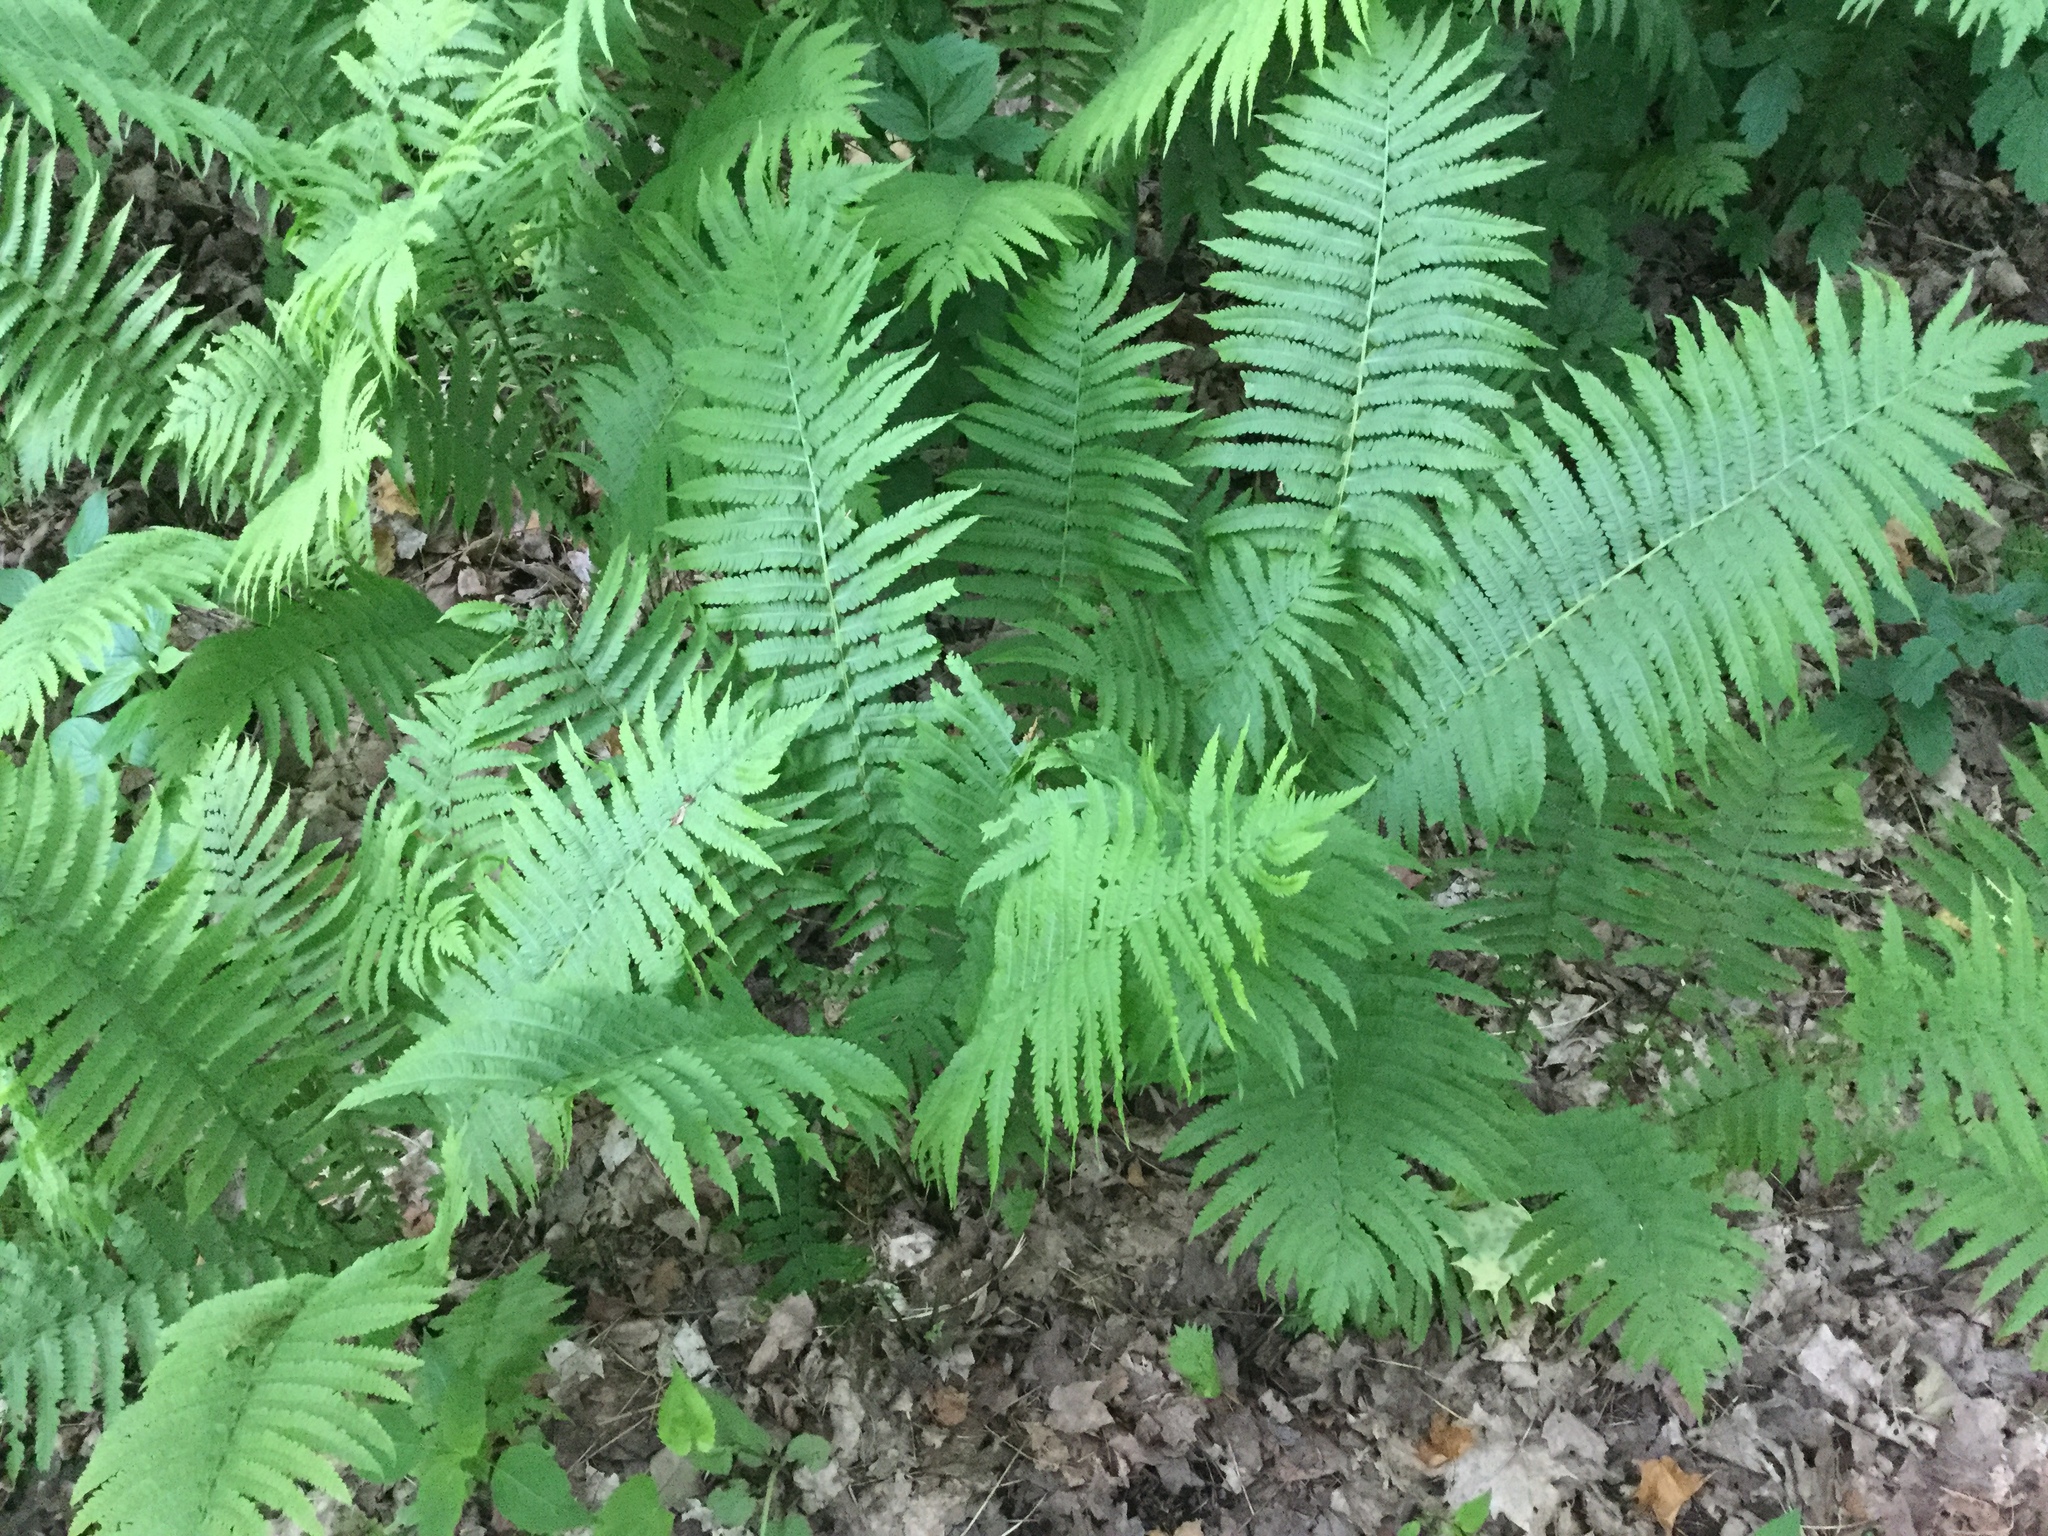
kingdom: Plantae
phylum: Tracheophyta
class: Polypodiopsida
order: Polypodiales
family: Onocleaceae
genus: Matteuccia
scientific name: Matteuccia struthiopteris
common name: Ostrich fern
